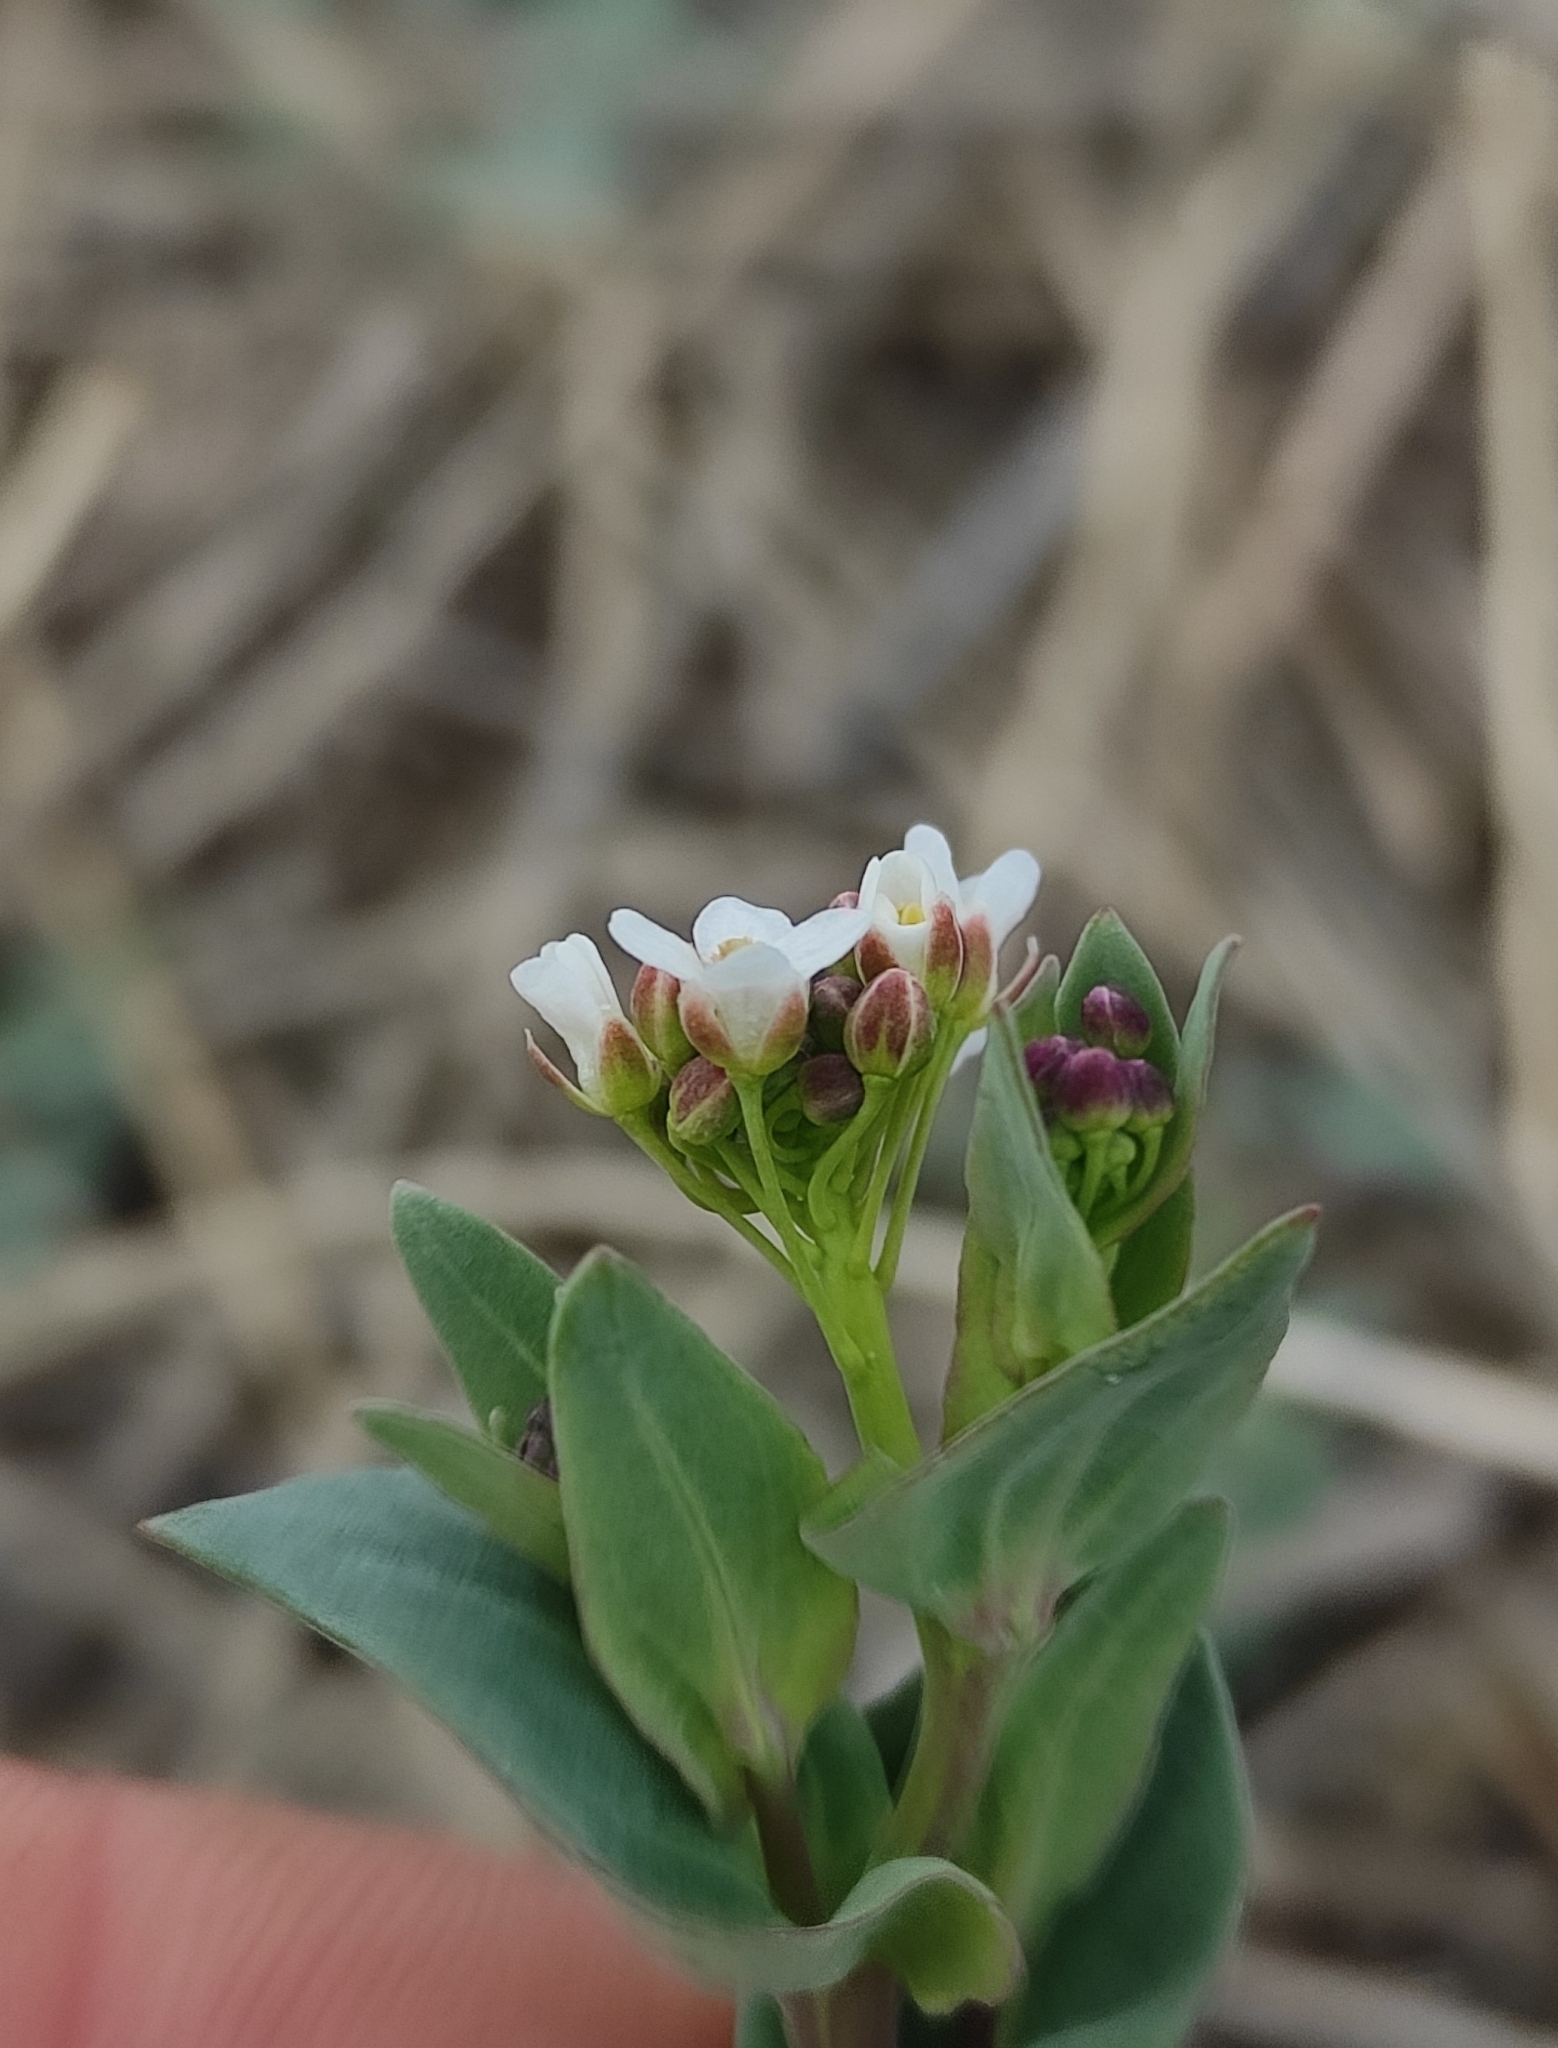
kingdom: Plantae
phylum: Tracheophyta
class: Magnoliopsida
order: Brassicales
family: Brassicaceae
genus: Noccaea
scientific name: Noccaea thlaspidioides
